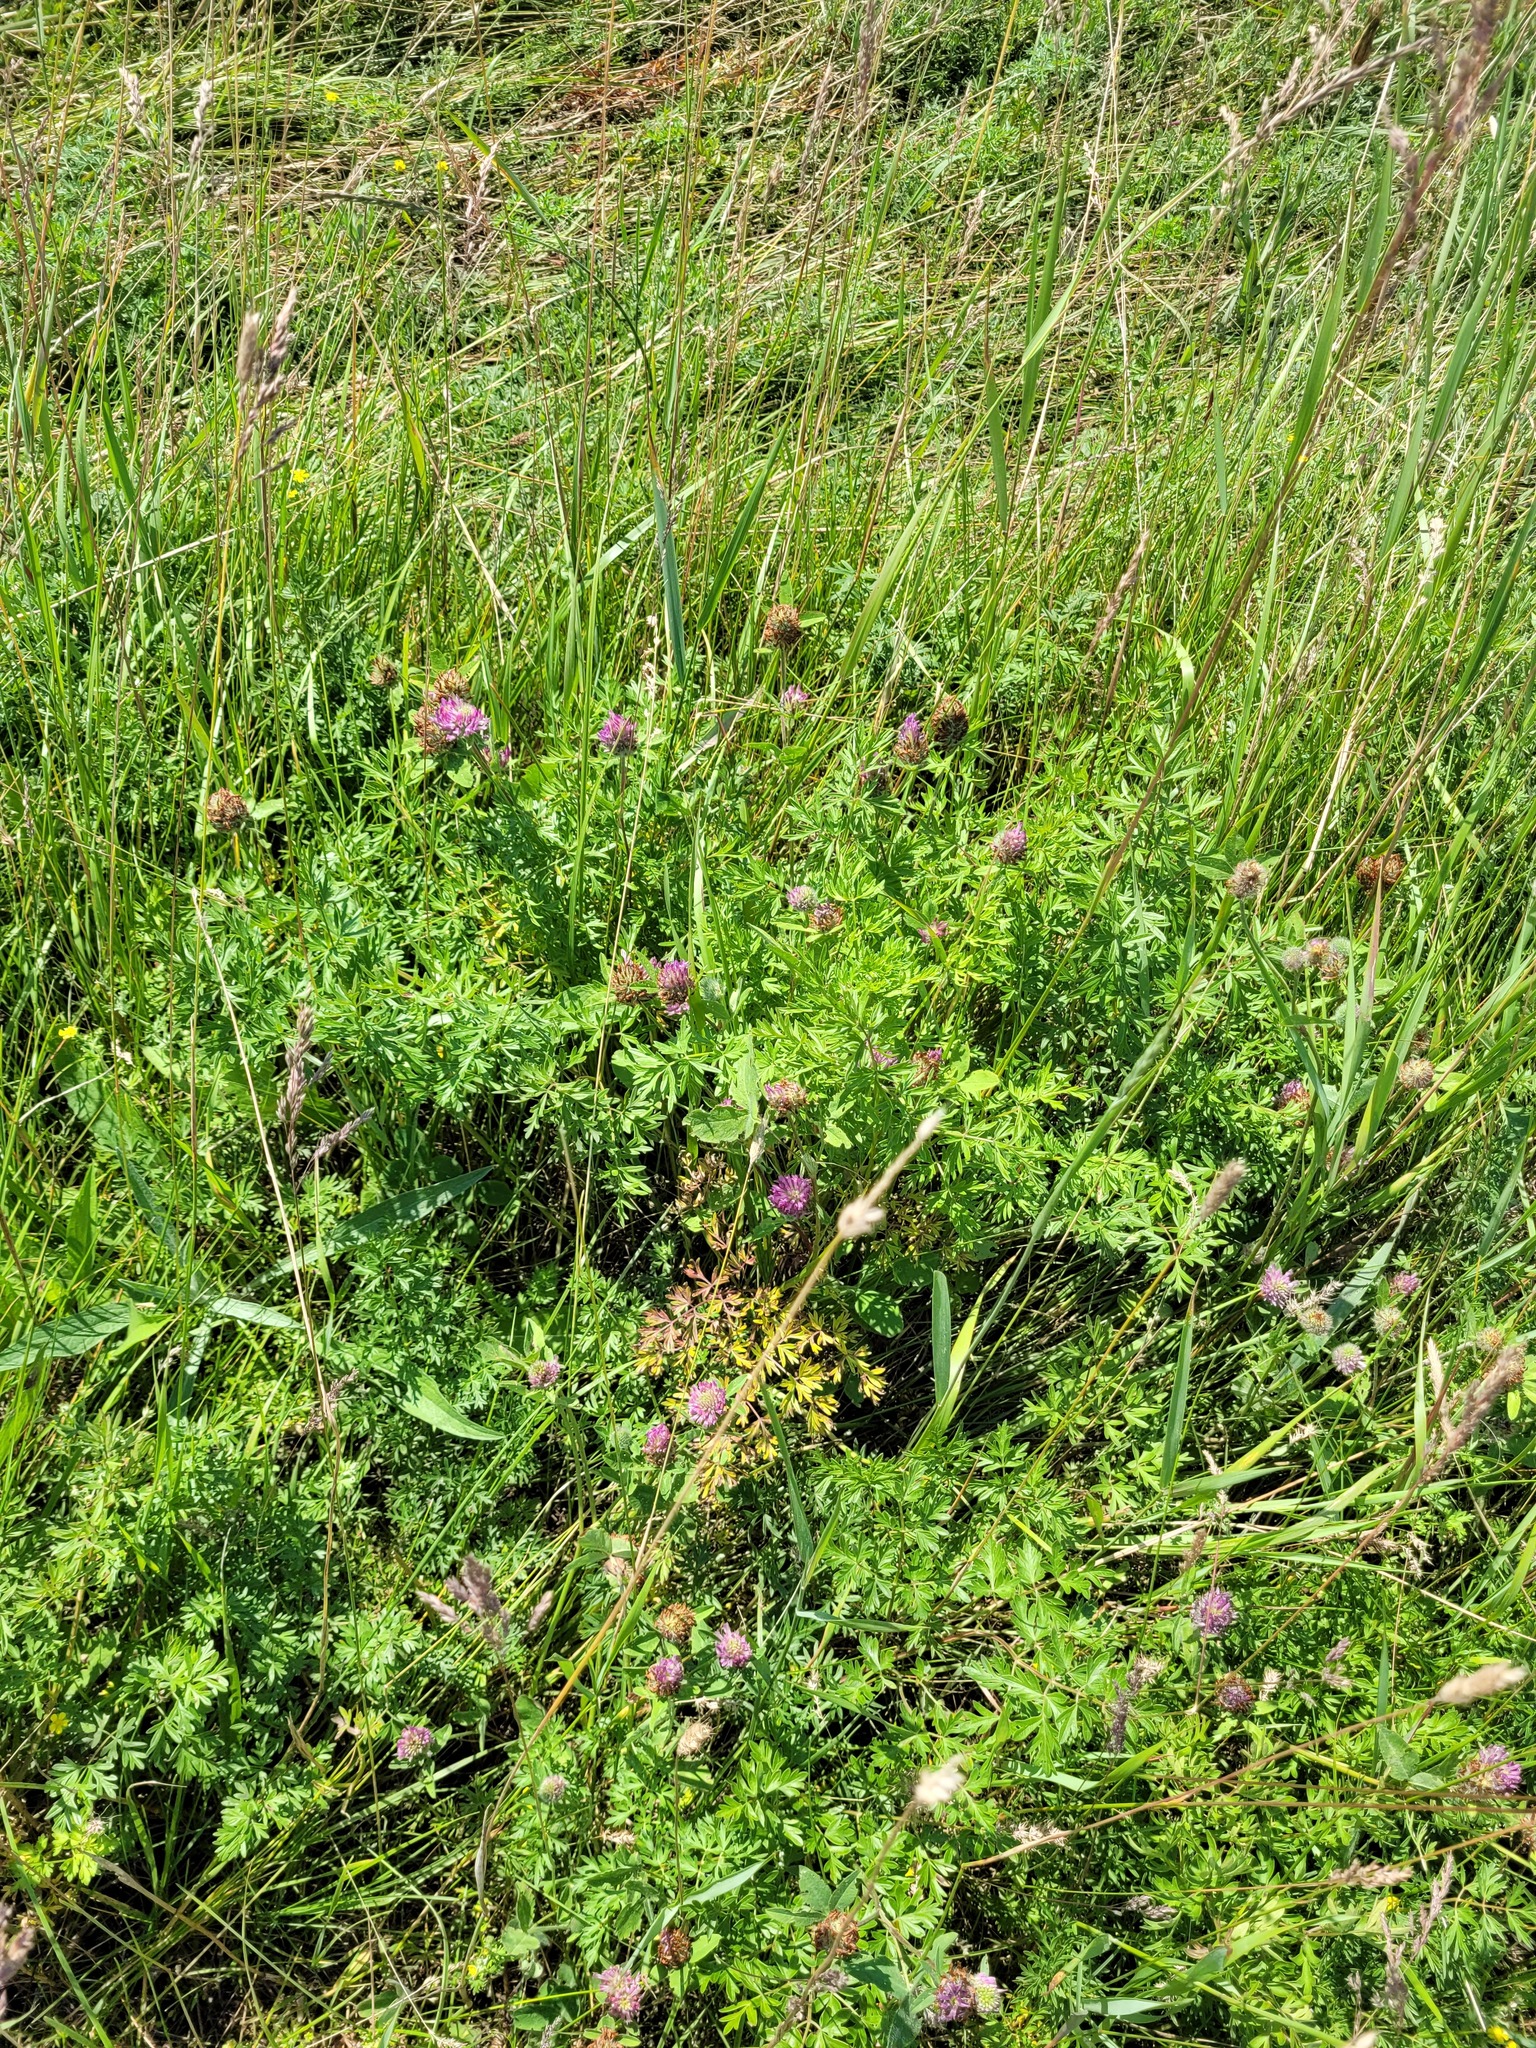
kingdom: Plantae
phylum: Tracheophyta
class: Magnoliopsida
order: Apiales
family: Apiaceae
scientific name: Apiaceae
